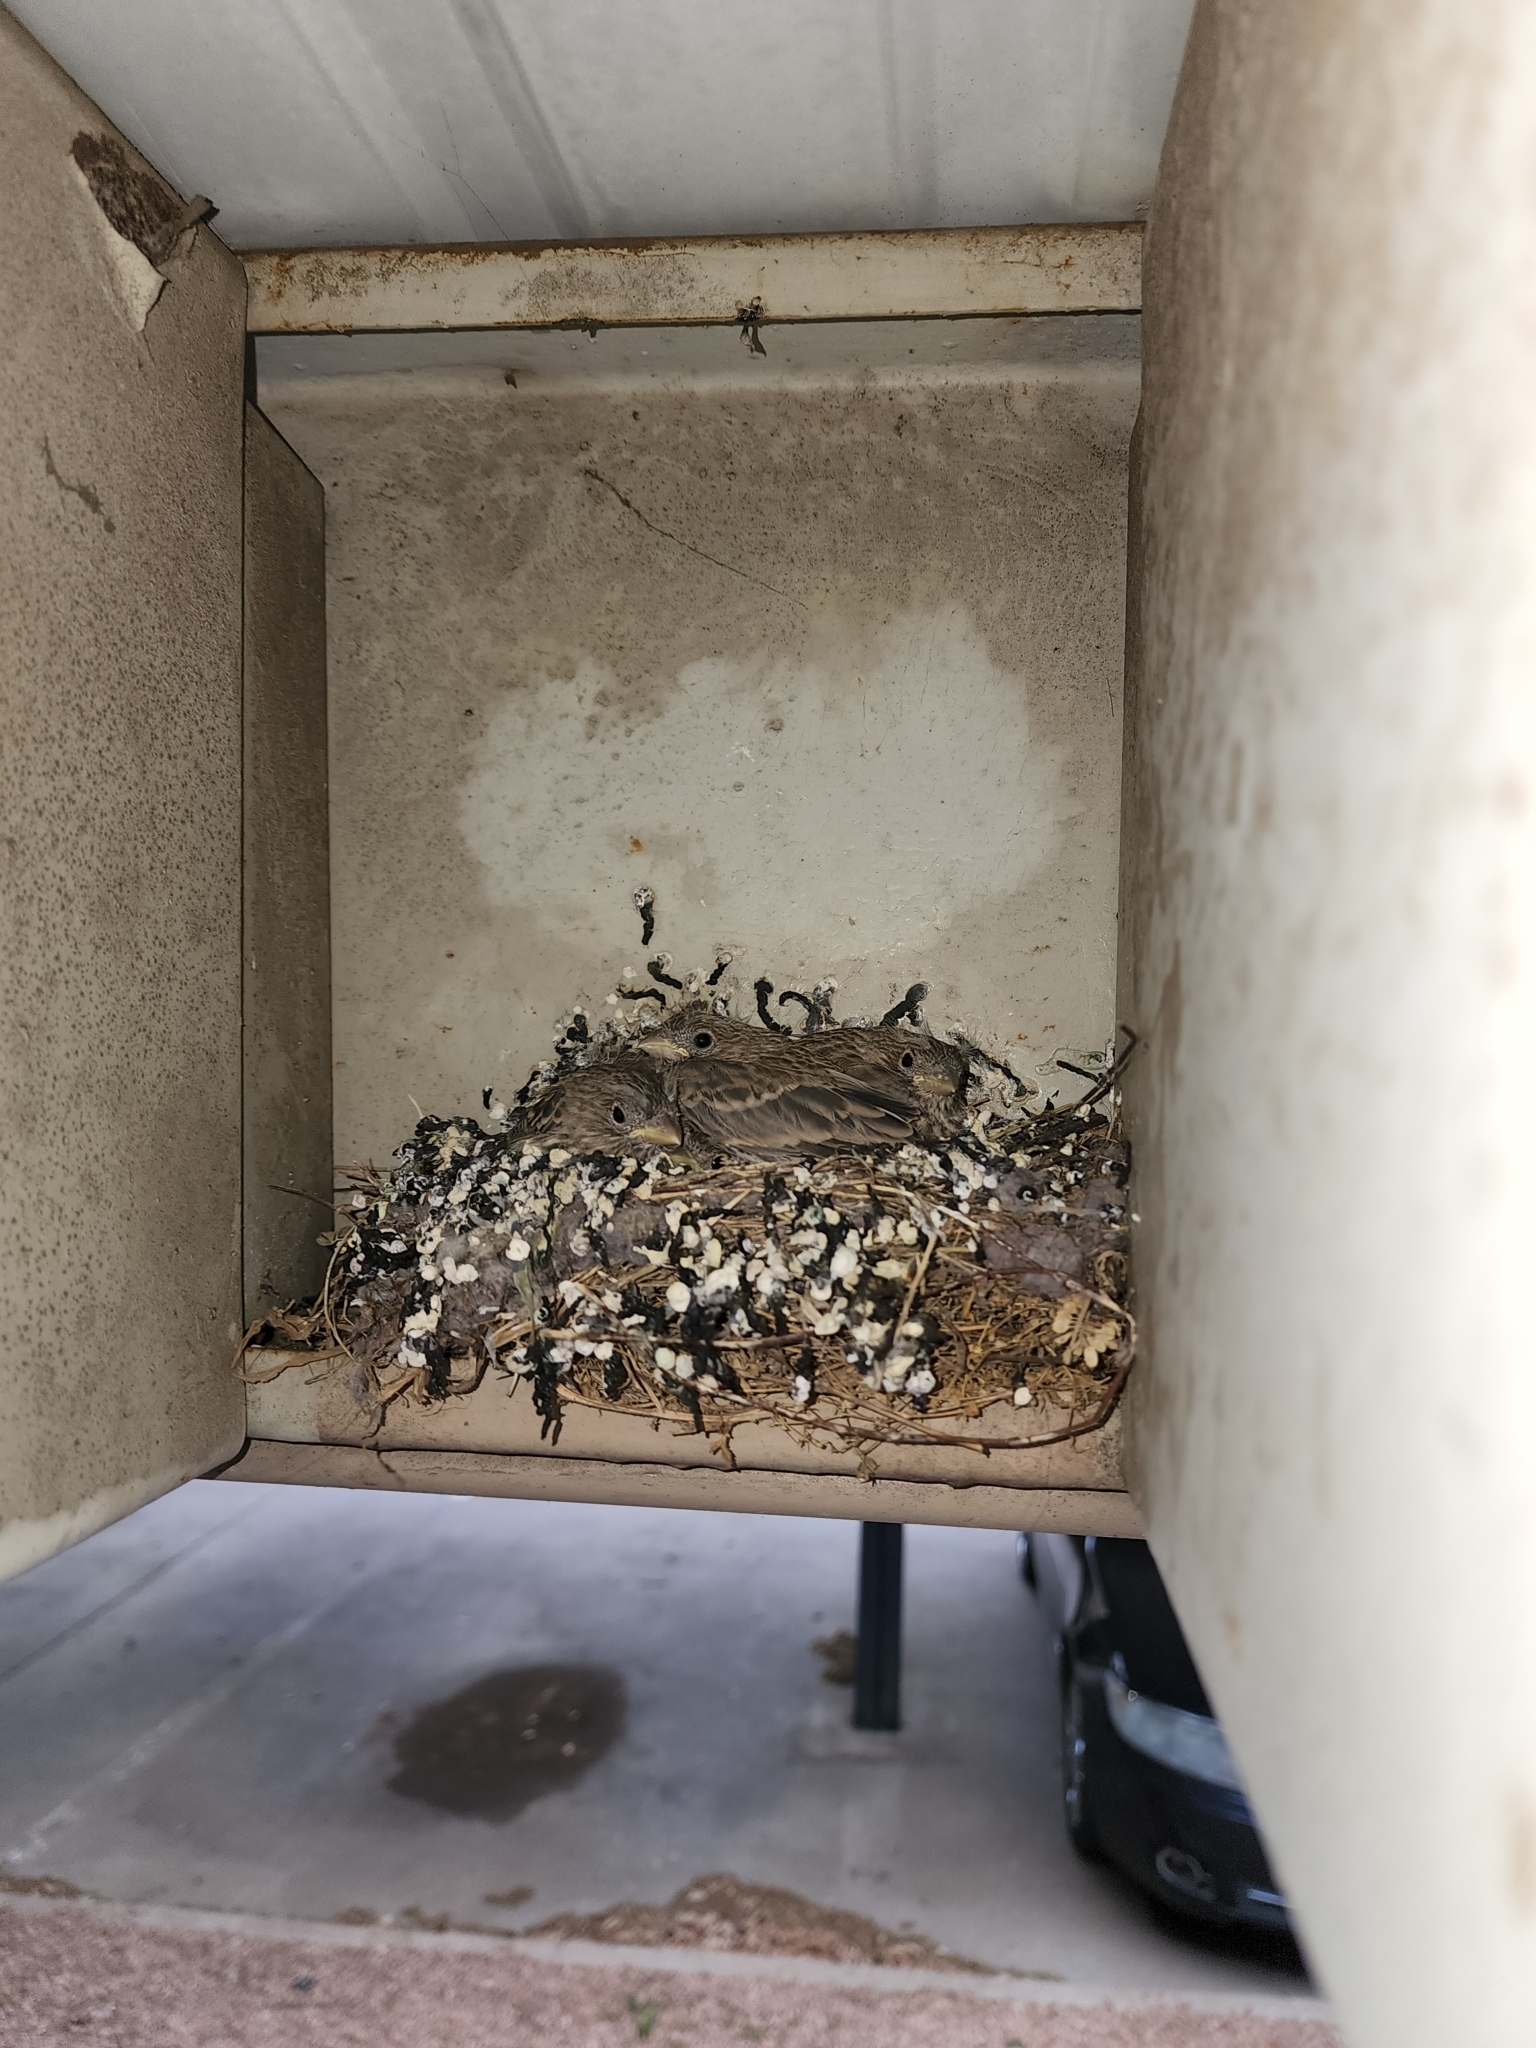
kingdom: Animalia
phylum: Chordata
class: Aves
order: Passeriformes
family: Fringillidae
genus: Haemorhous
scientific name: Haemorhous mexicanus
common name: House finch
